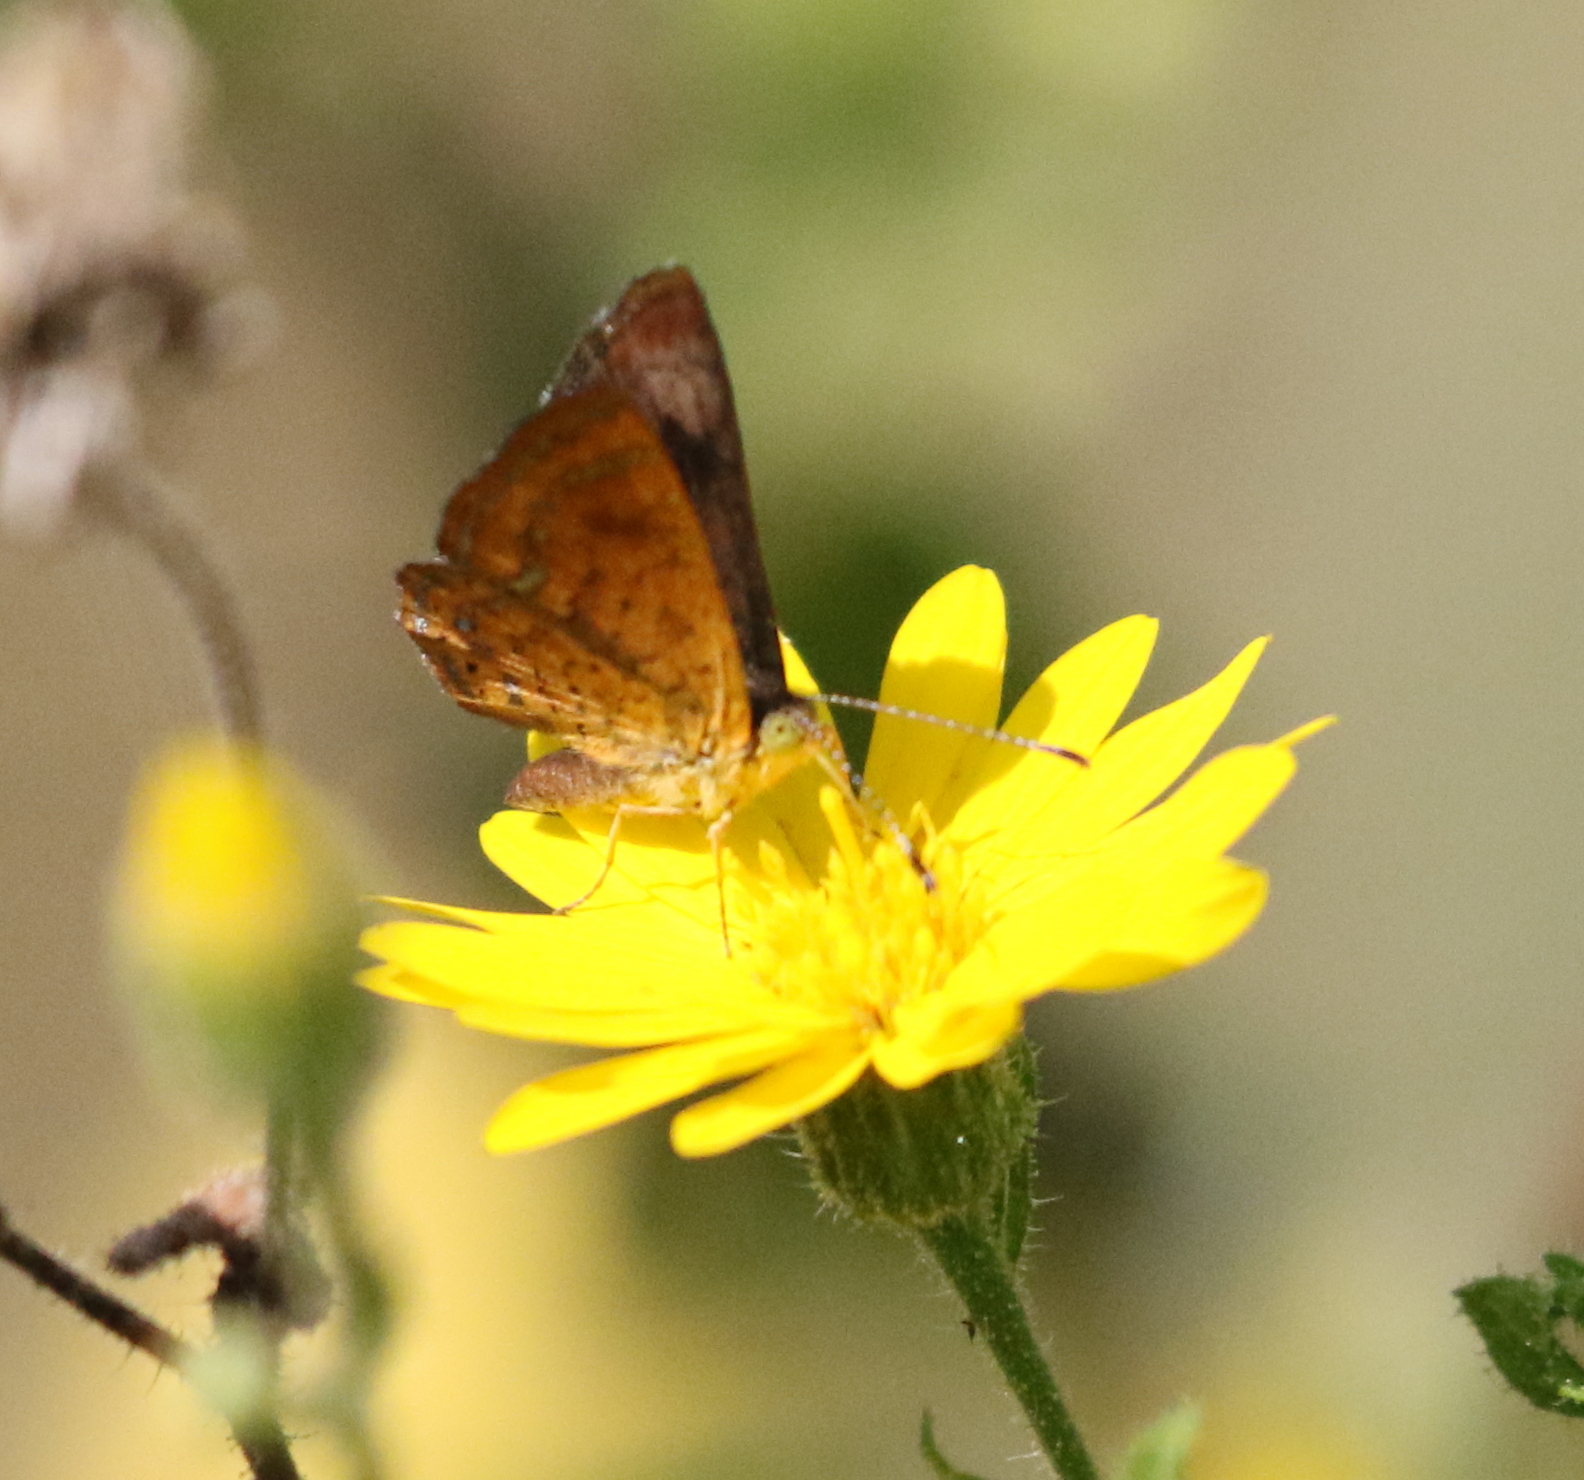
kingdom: Animalia
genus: Calephelis
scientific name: Calephelis nemesis
